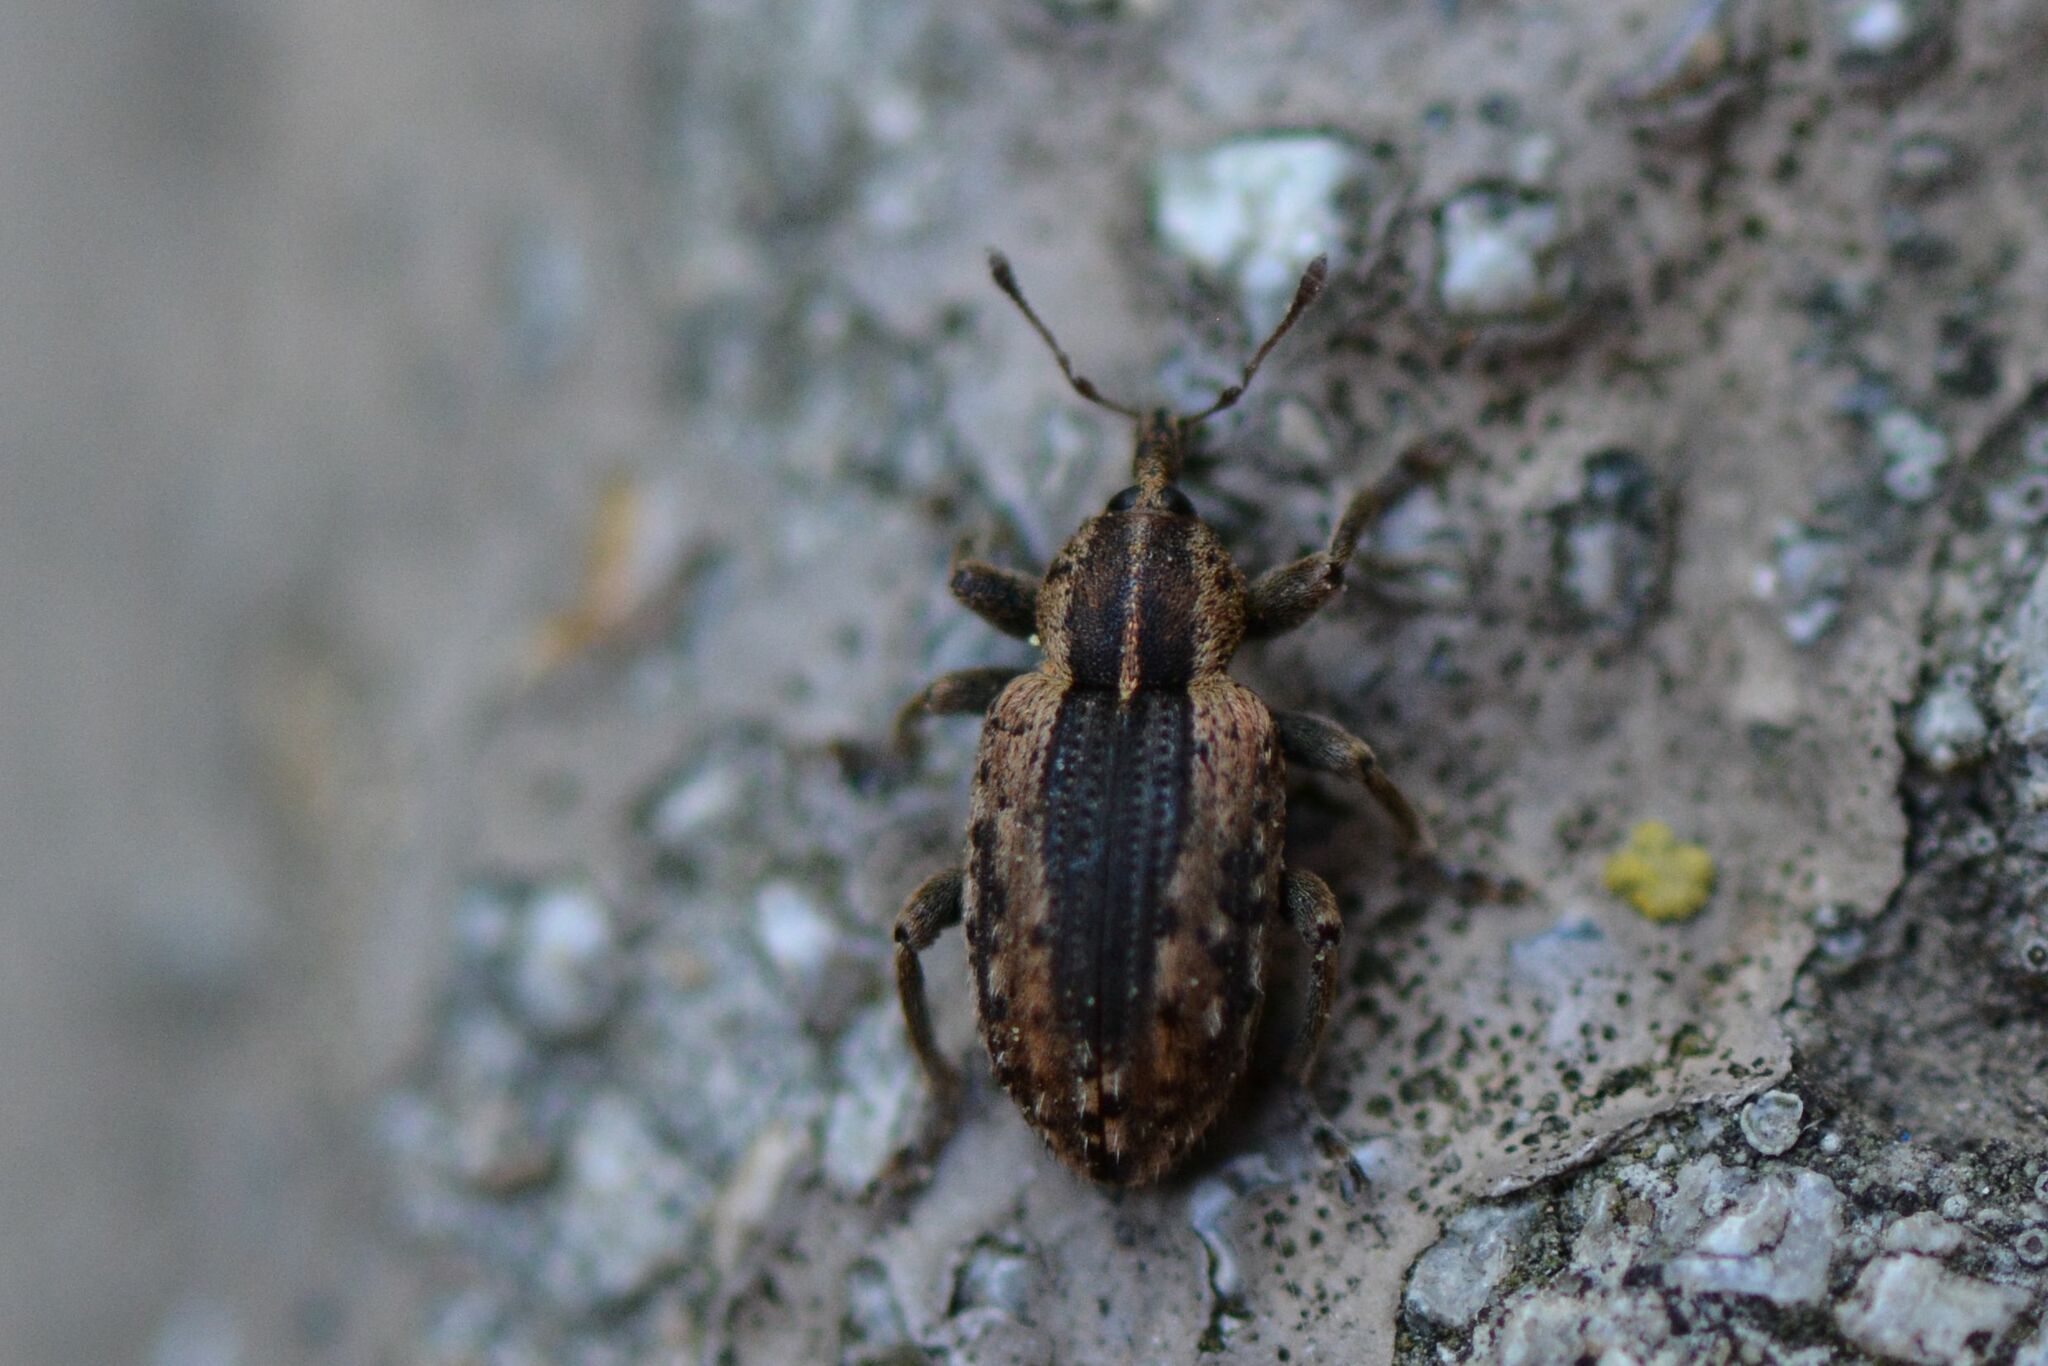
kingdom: Animalia
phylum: Arthropoda
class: Insecta
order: Coleoptera
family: Curculionidae
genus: Hypera
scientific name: Hypera postica
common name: Weevil
